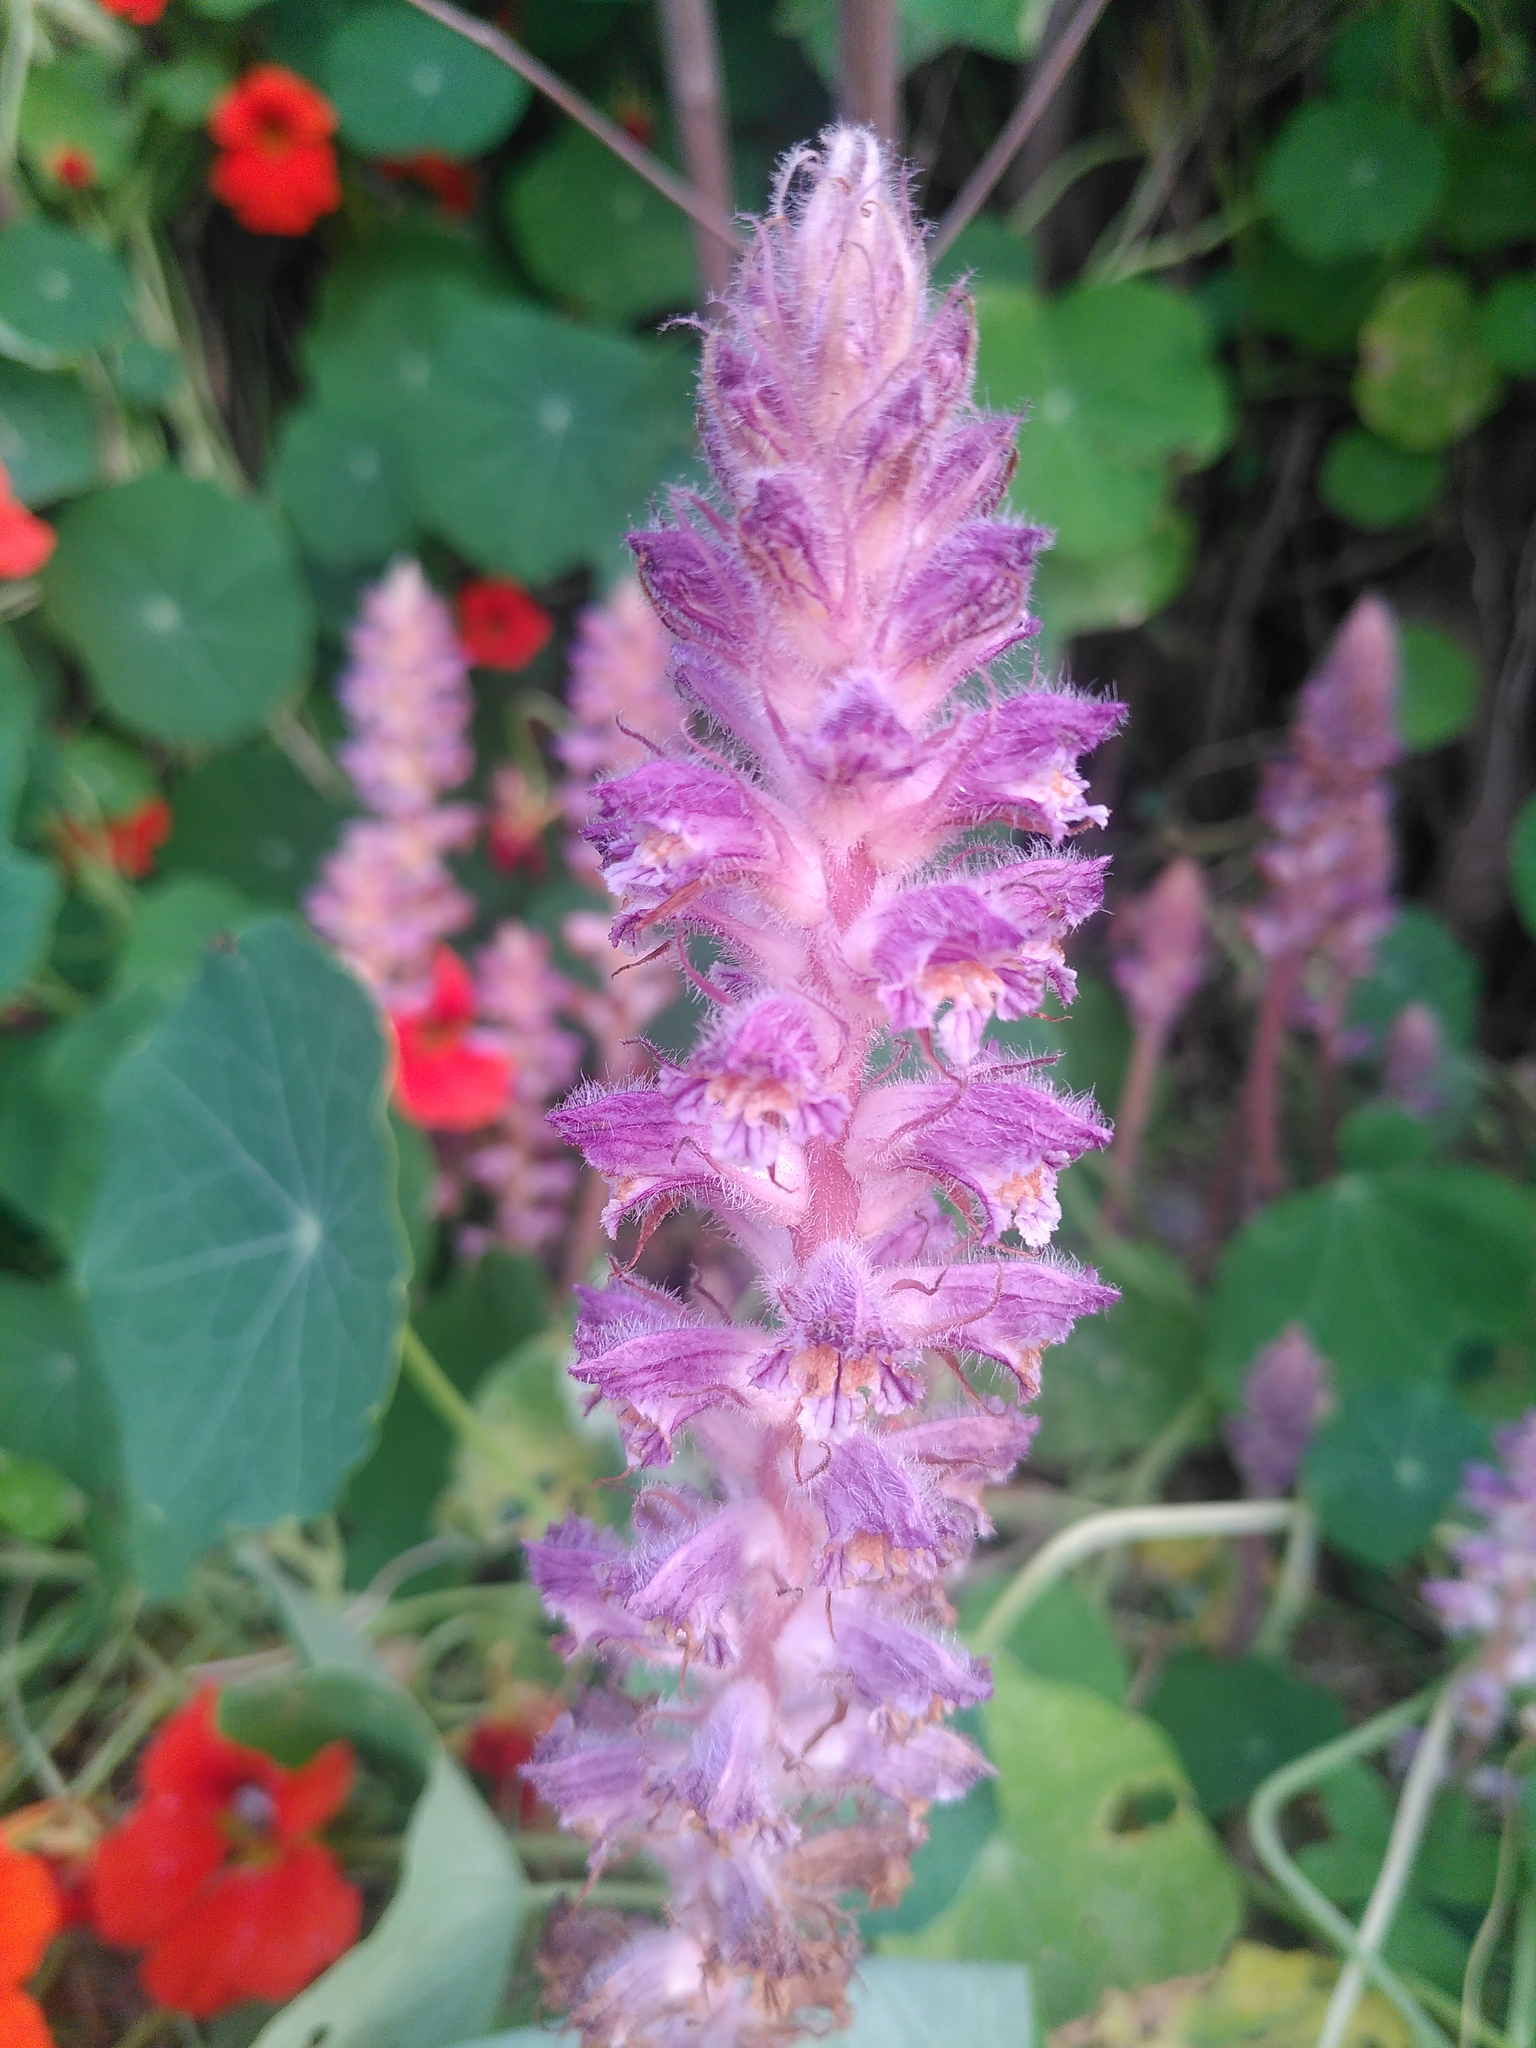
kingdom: Plantae
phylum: Tracheophyta
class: Magnoliopsida
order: Lamiales
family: Orobanchaceae
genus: Orobanche
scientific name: Orobanche pubescens
